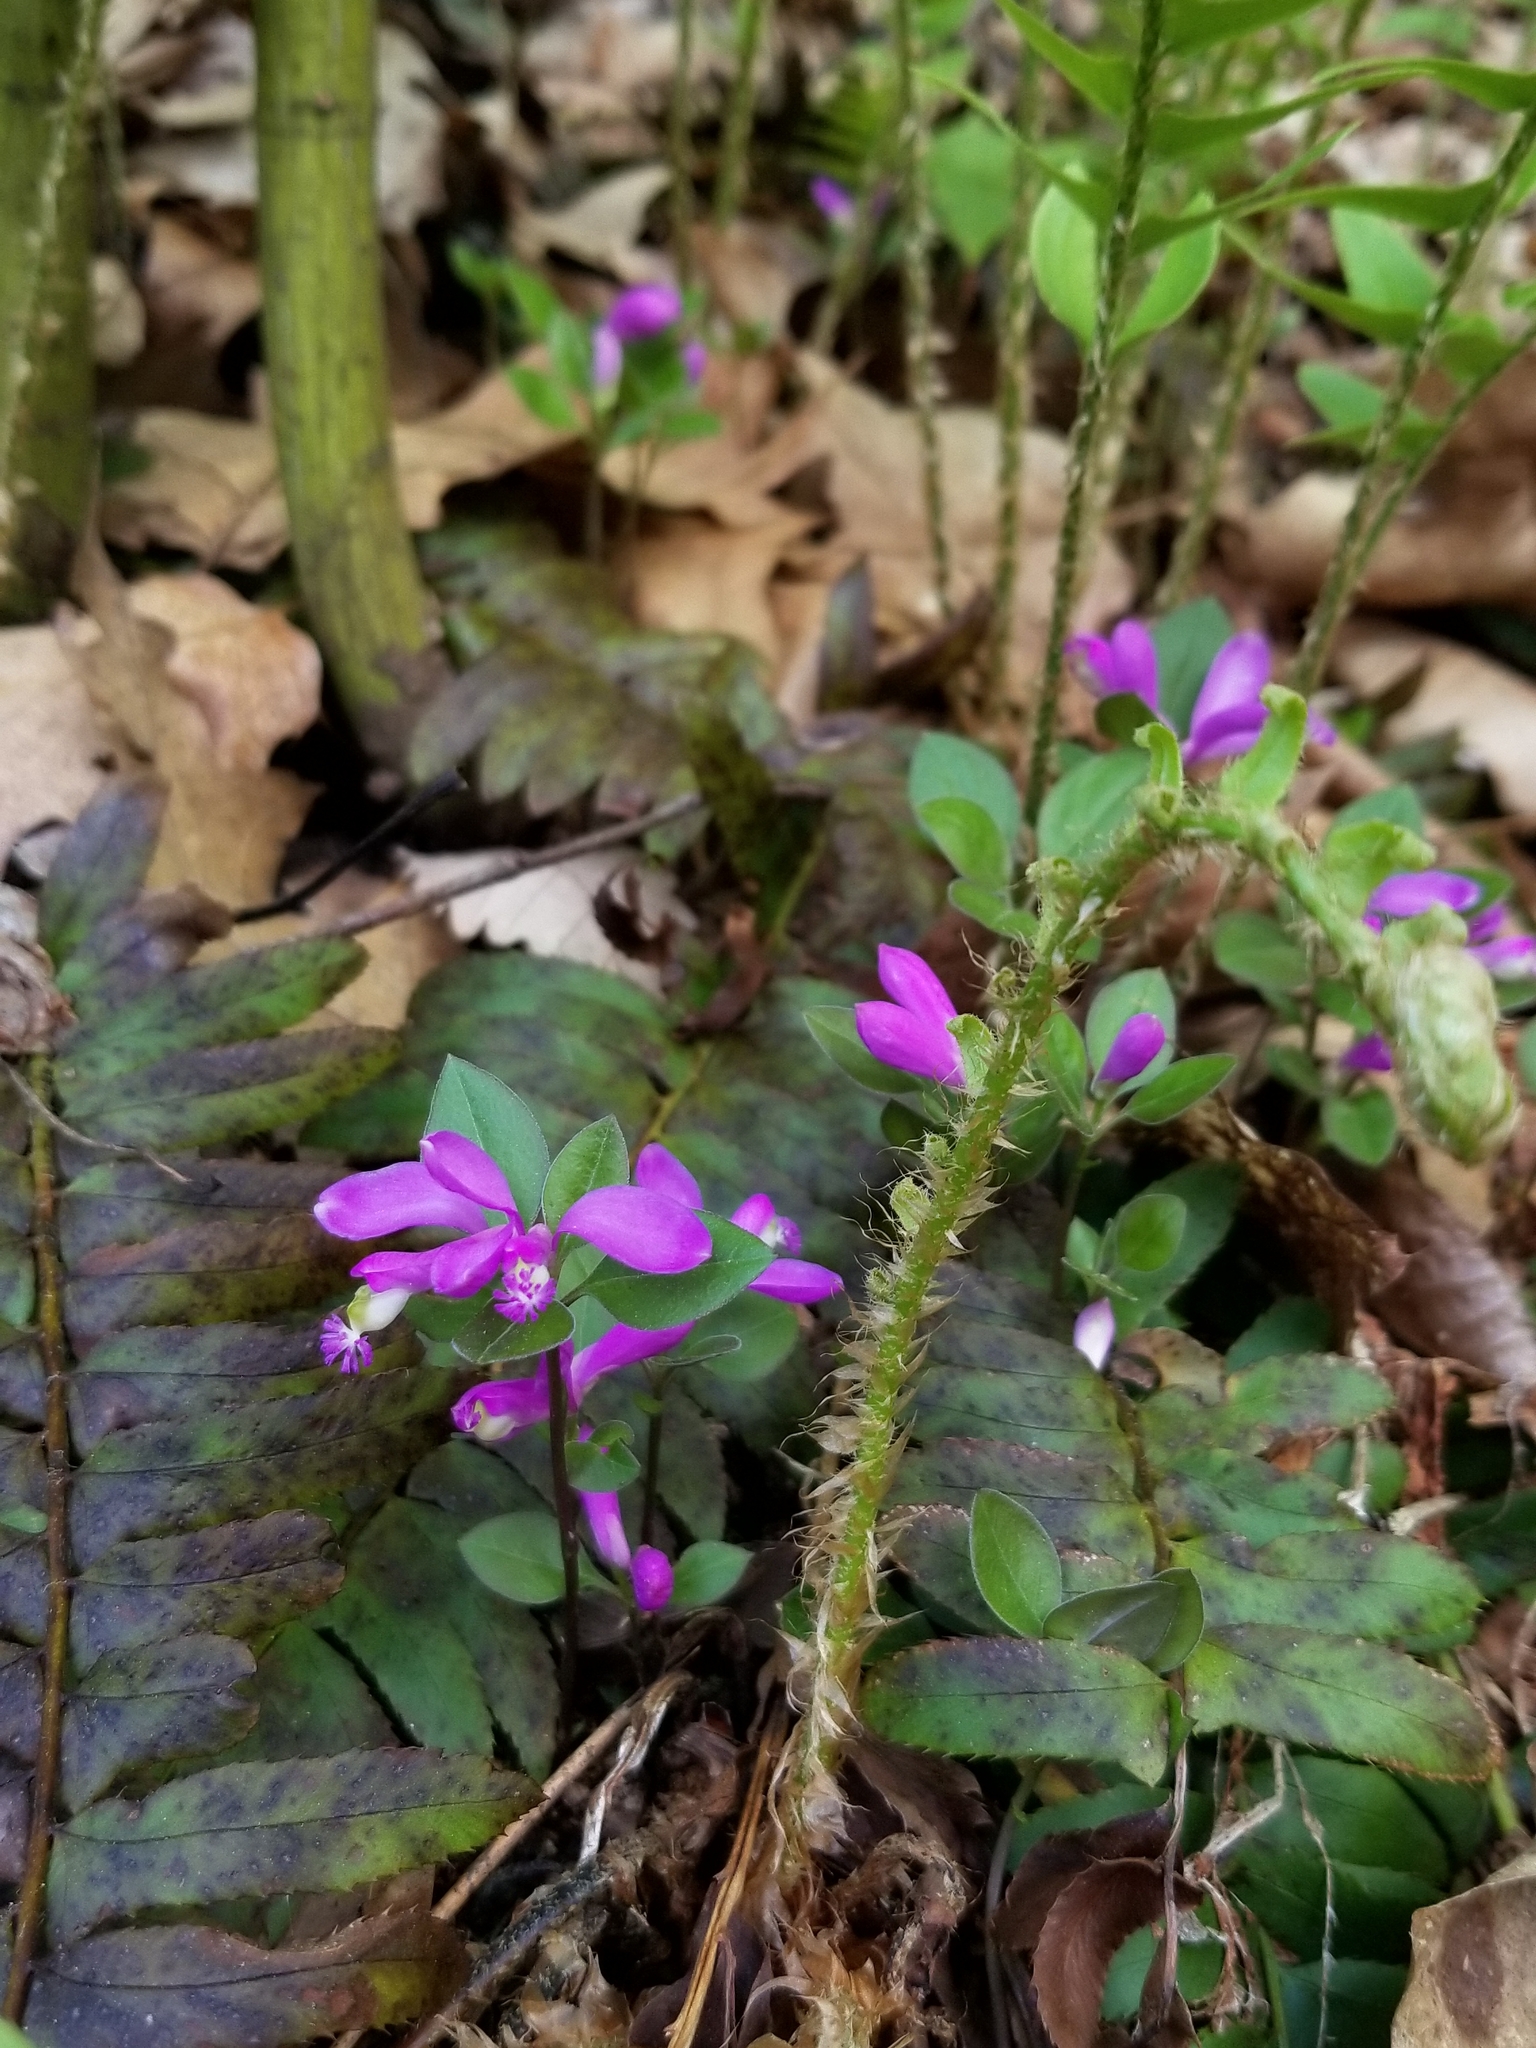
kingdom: Plantae
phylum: Tracheophyta
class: Magnoliopsida
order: Fabales
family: Polygalaceae
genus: Polygaloides
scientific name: Polygaloides paucifolia
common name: Bird-on-the-wing
